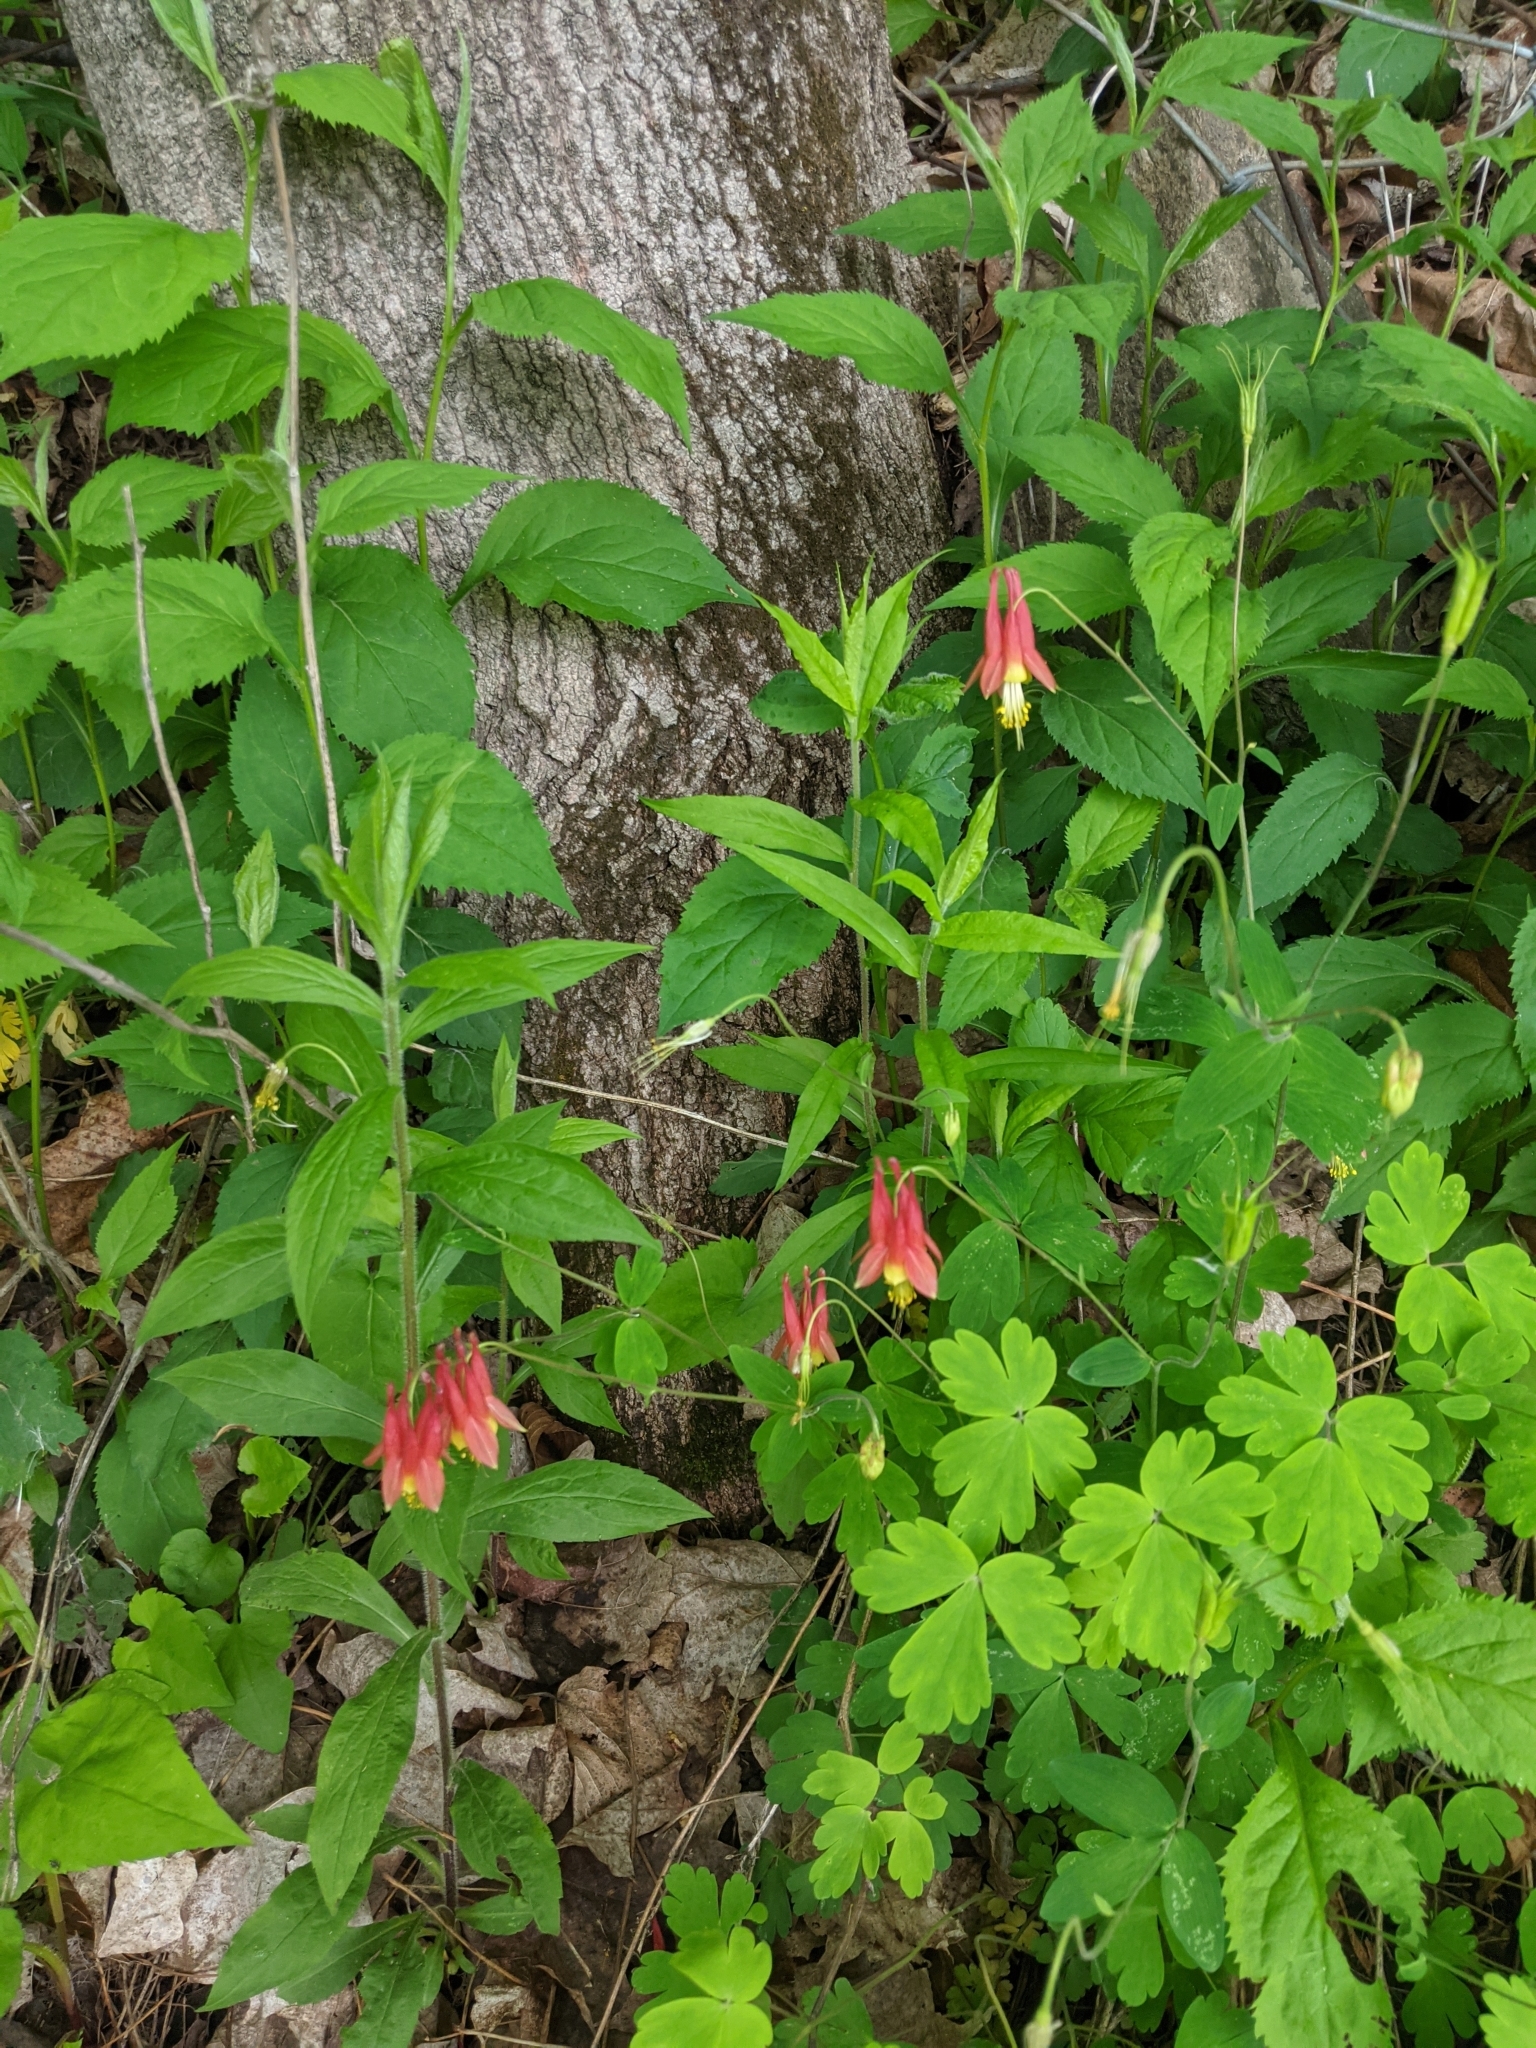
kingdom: Plantae
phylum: Tracheophyta
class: Magnoliopsida
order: Ranunculales
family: Ranunculaceae
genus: Aquilegia
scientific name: Aquilegia canadensis
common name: American columbine
